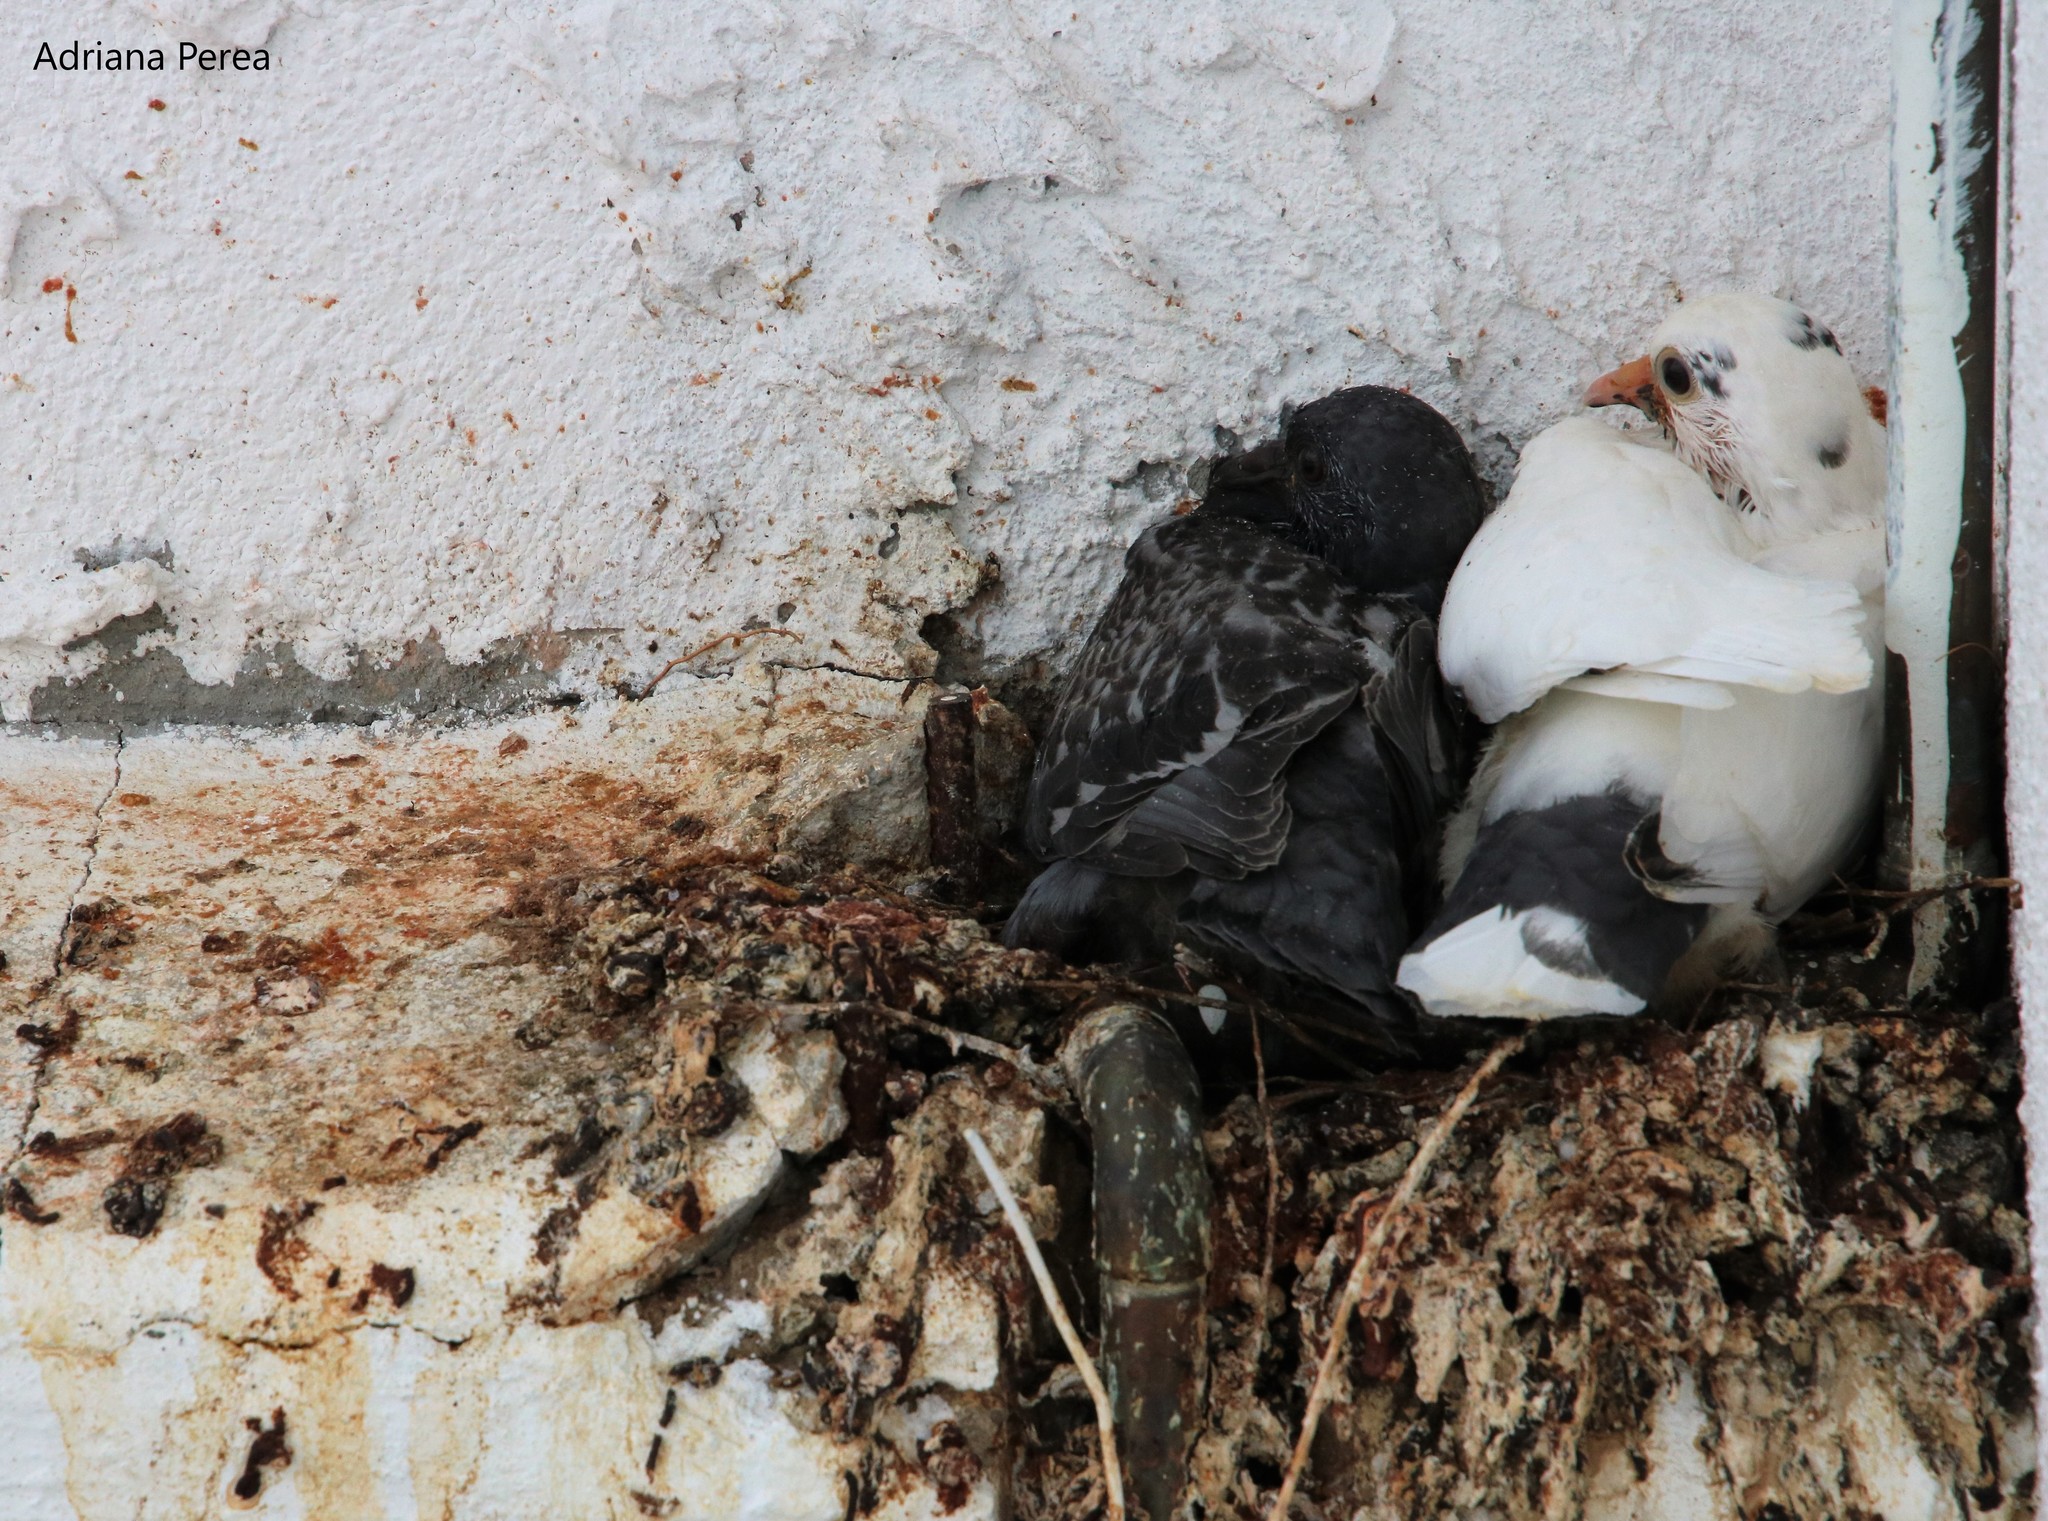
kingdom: Animalia
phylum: Chordata
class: Aves
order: Columbiformes
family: Columbidae
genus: Columba
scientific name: Columba livia
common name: Rock pigeon
